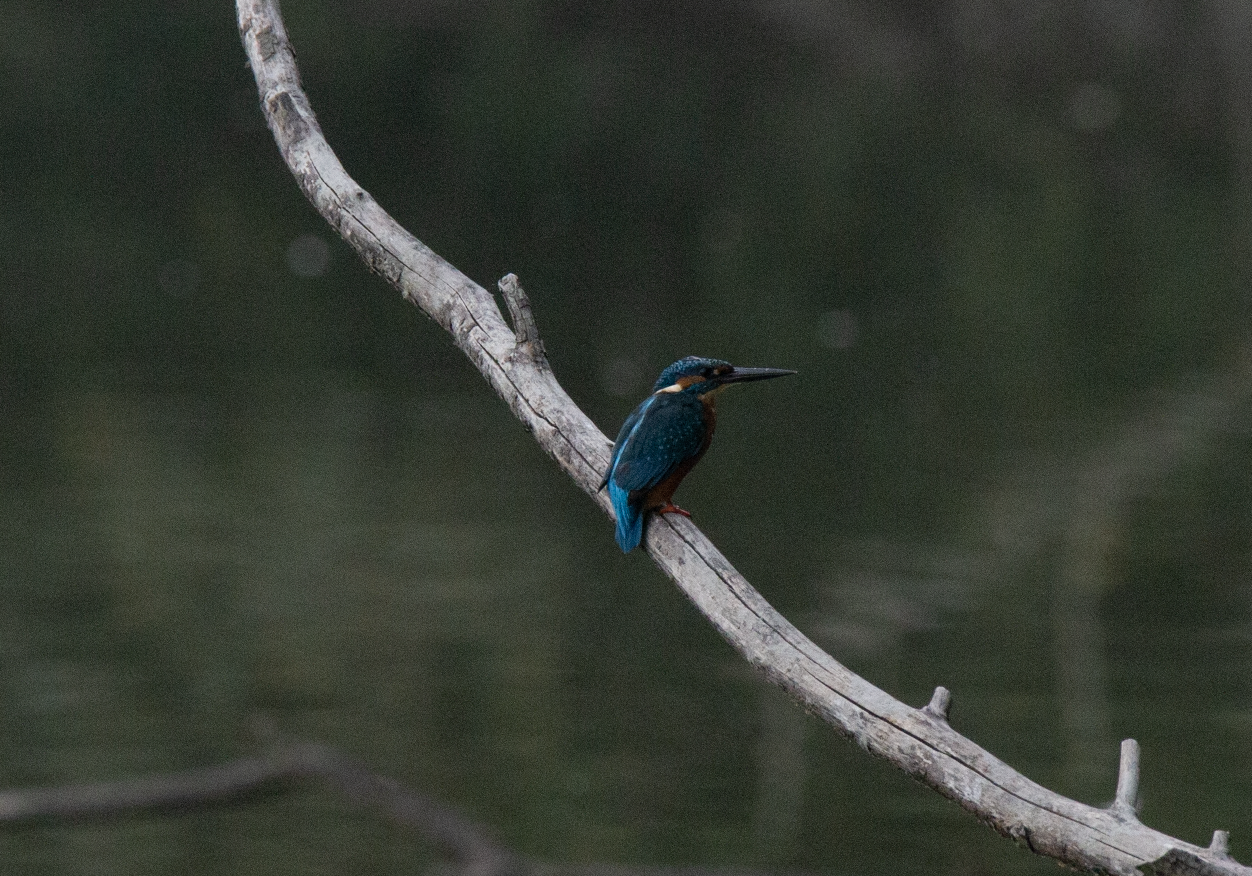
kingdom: Animalia
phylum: Chordata
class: Aves
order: Coraciiformes
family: Alcedinidae
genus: Alcedo
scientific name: Alcedo atthis
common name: Common kingfisher
